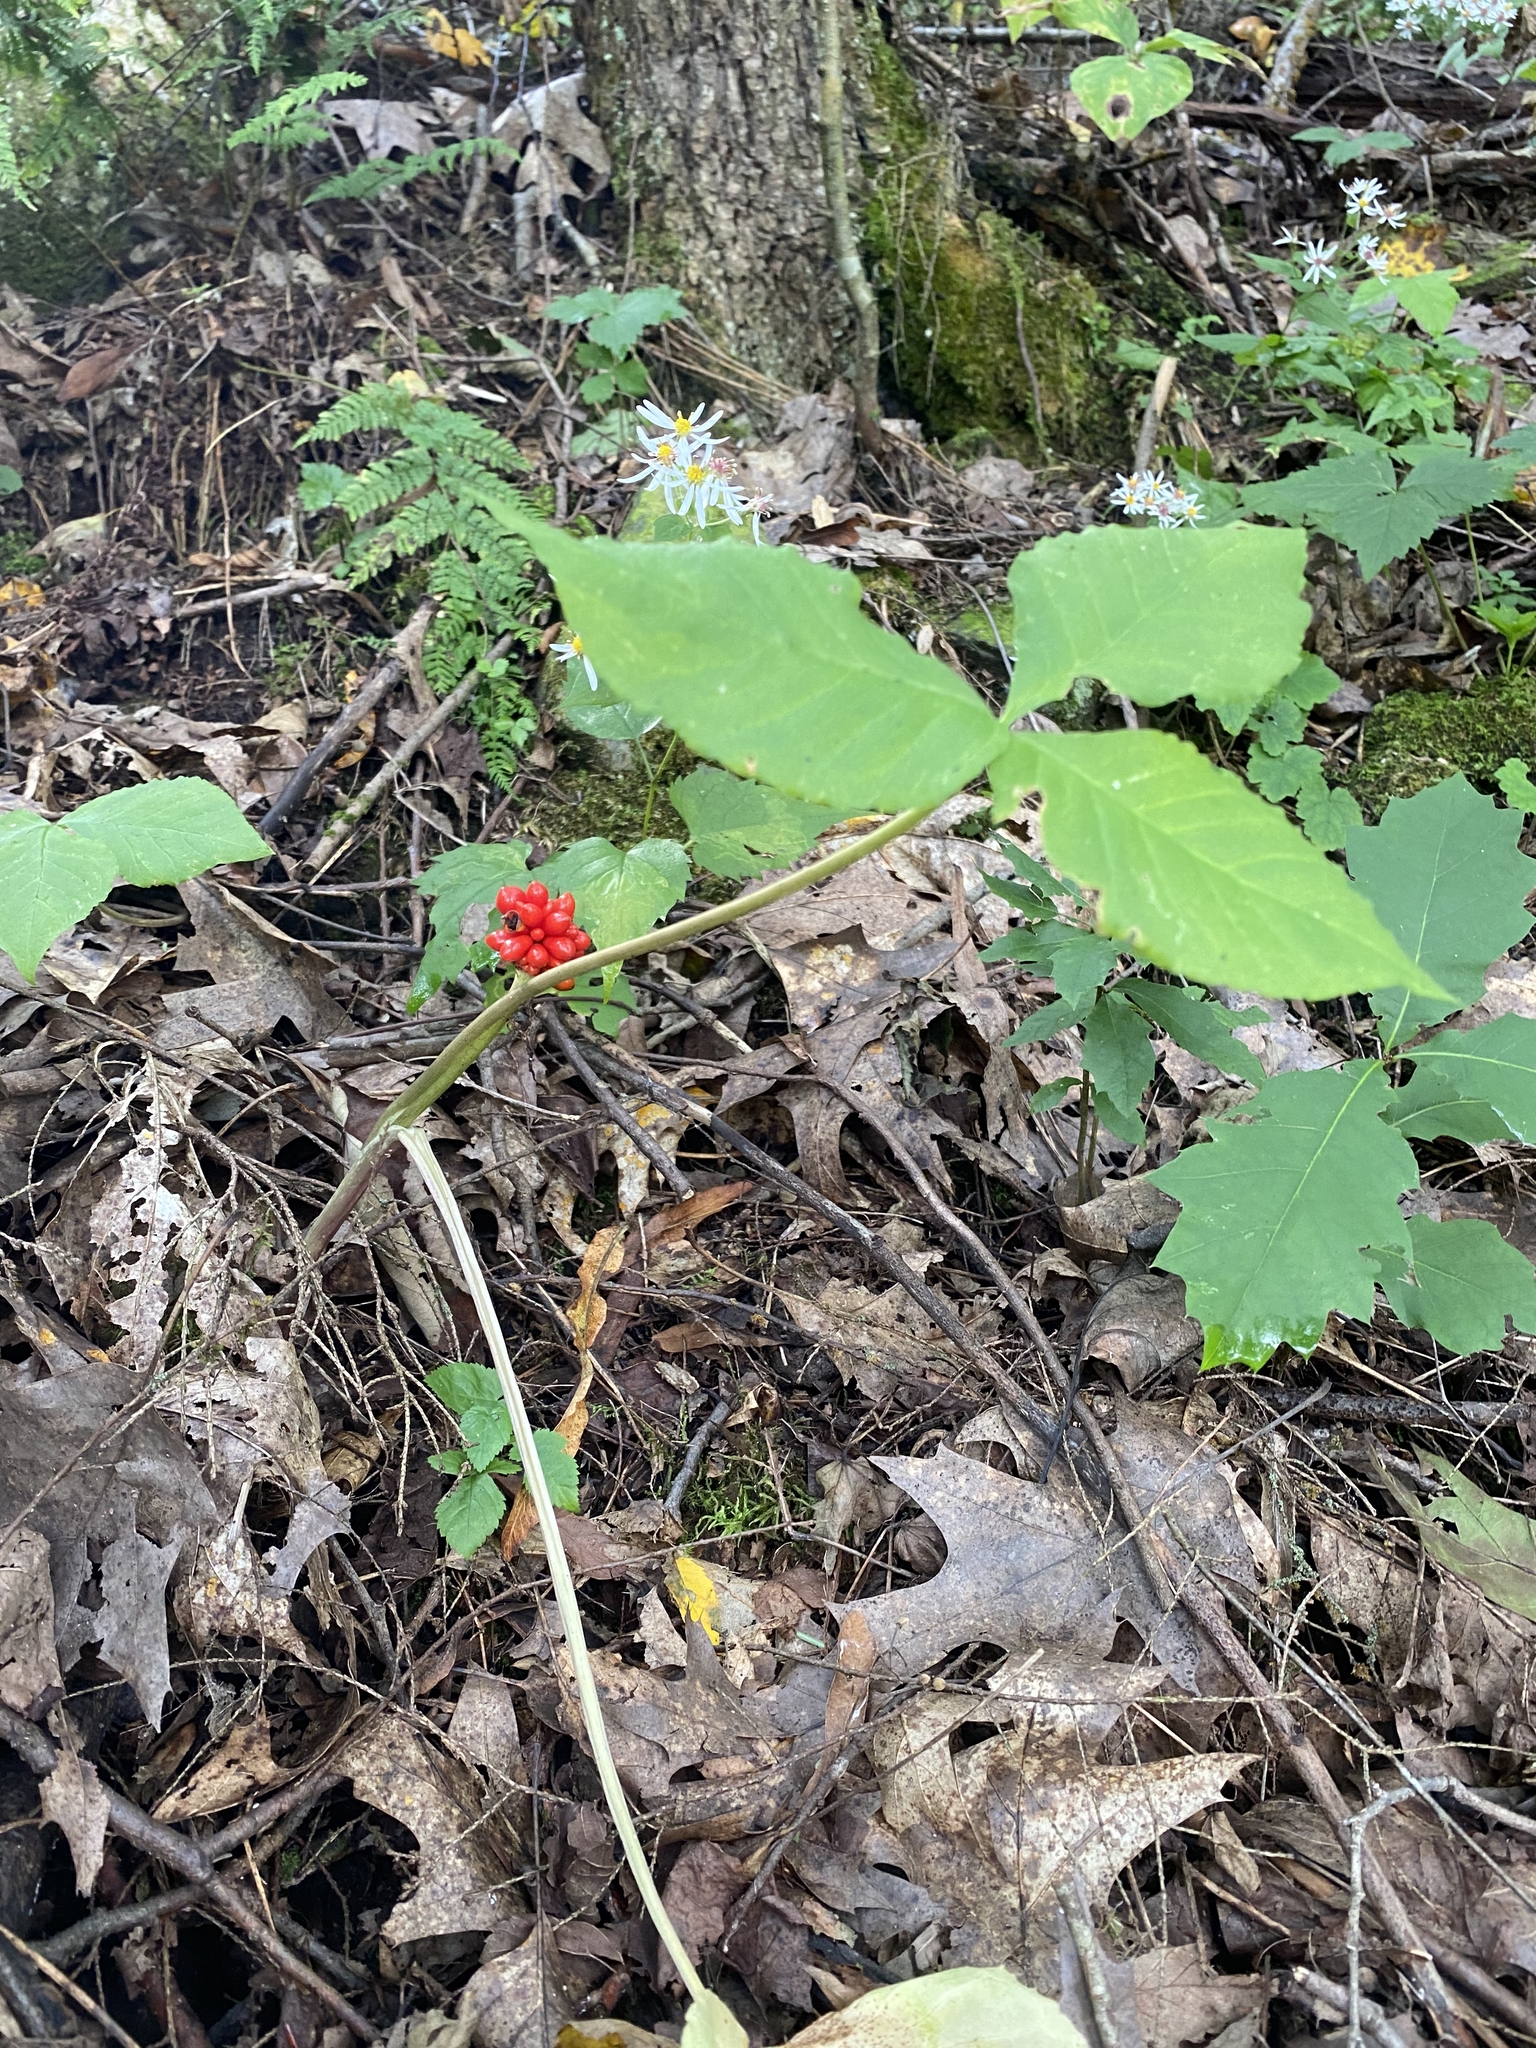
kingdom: Plantae
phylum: Tracheophyta
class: Liliopsida
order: Alismatales
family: Araceae
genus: Arisaema
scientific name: Arisaema triphyllum
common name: Jack-in-the-pulpit
